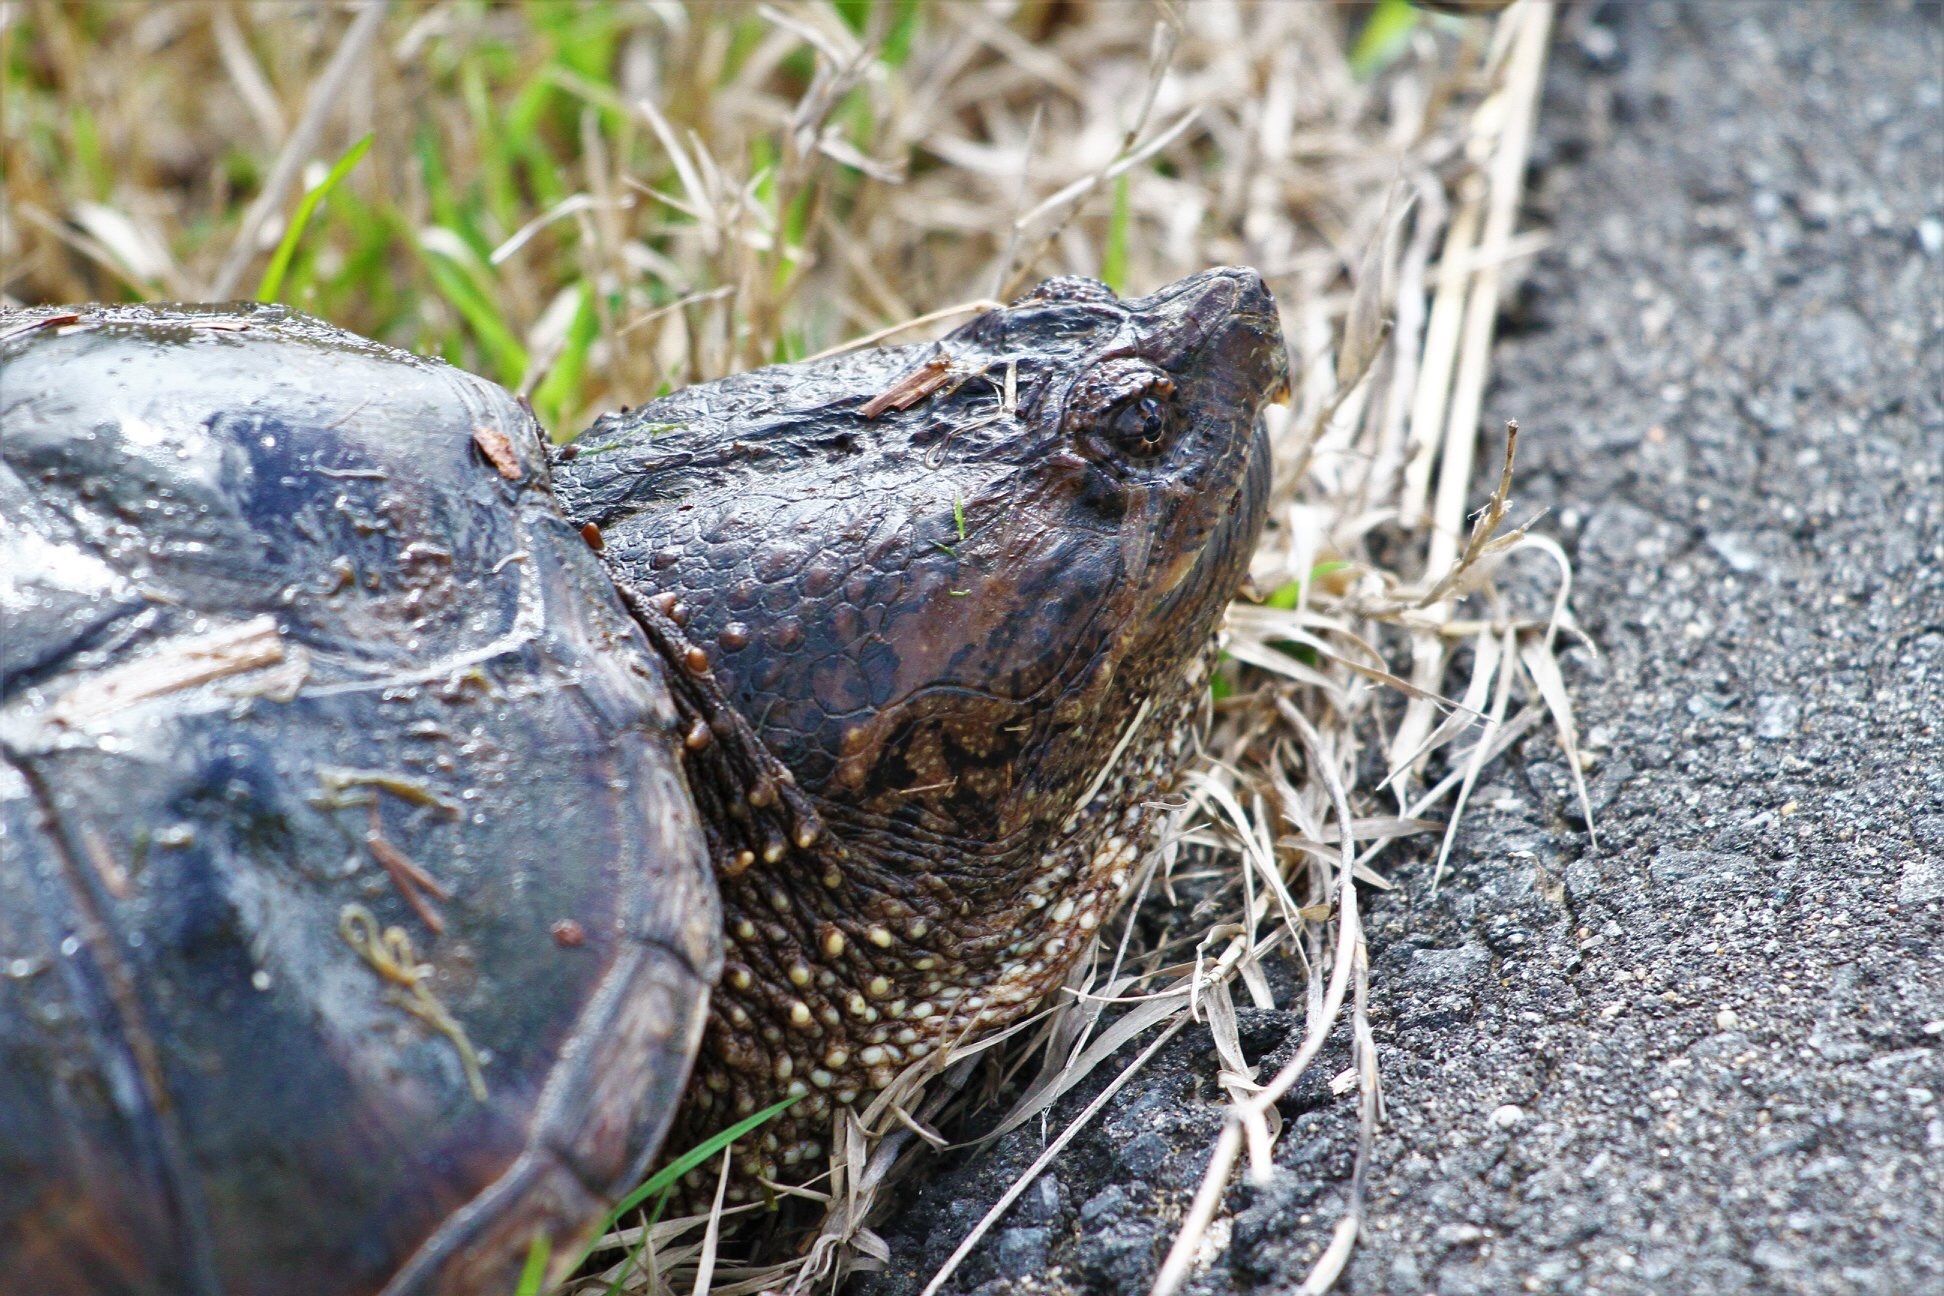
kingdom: Animalia
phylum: Chordata
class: Testudines
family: Chelydridae
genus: Chelydra
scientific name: Chelydra serpentina
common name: Common snapping turtle
